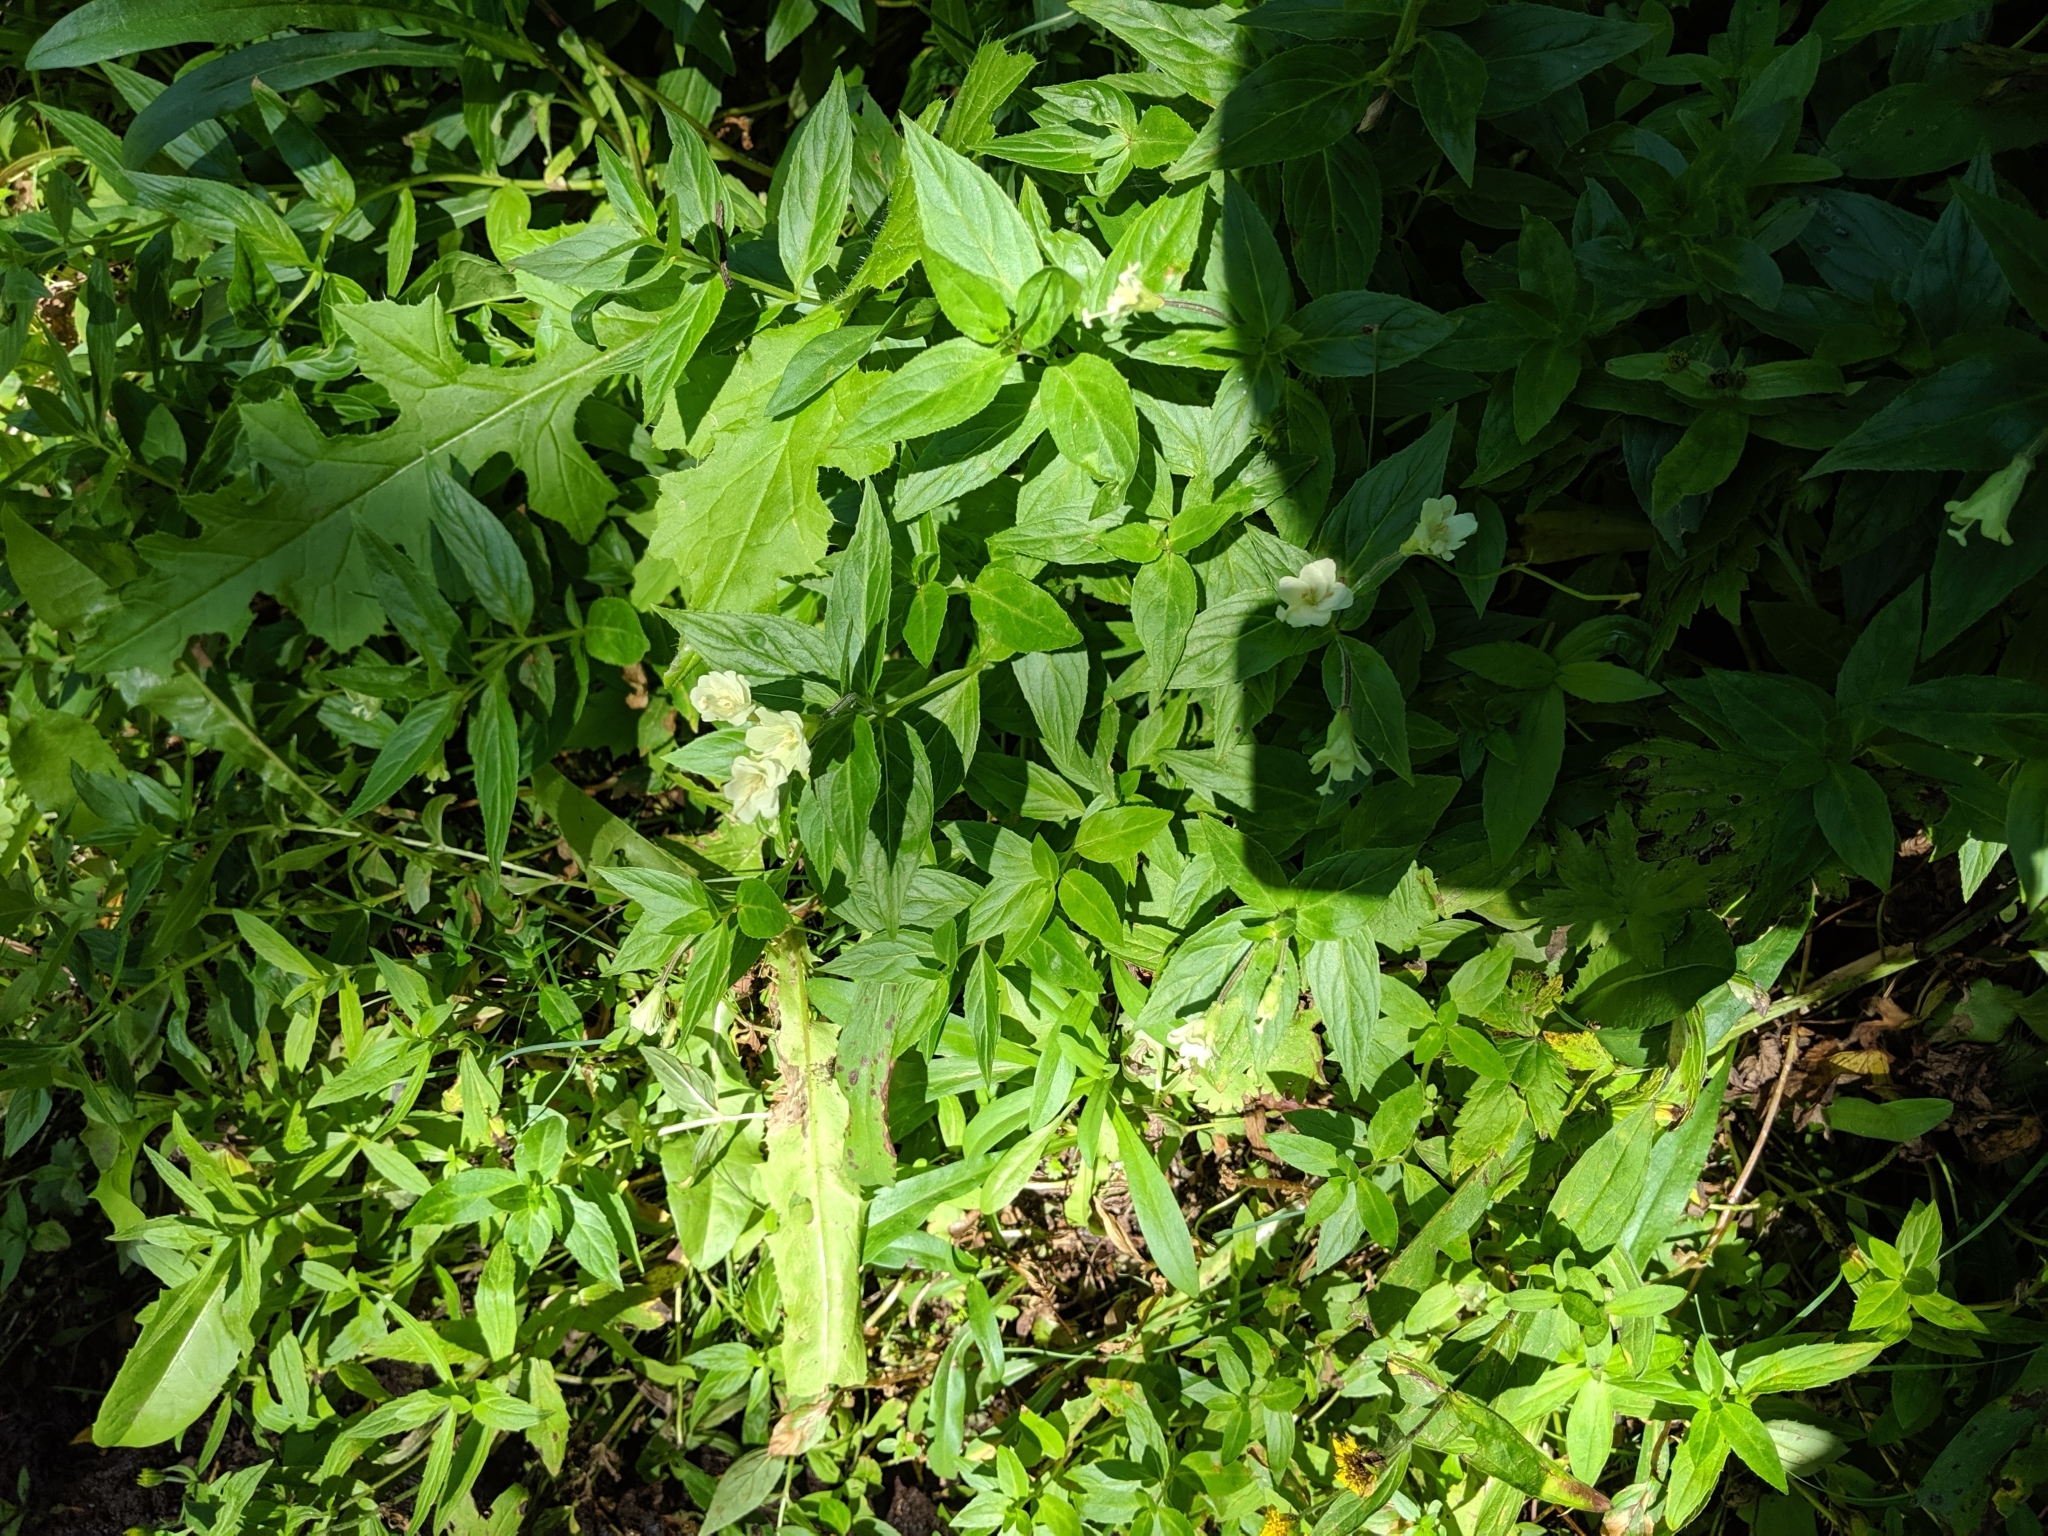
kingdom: Plantae
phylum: Tracheophyta
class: Magnoliopsida
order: Myrtales
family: Onagraceae
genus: Epilobium
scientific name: Epilobium luteum
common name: Yellow willowherb
